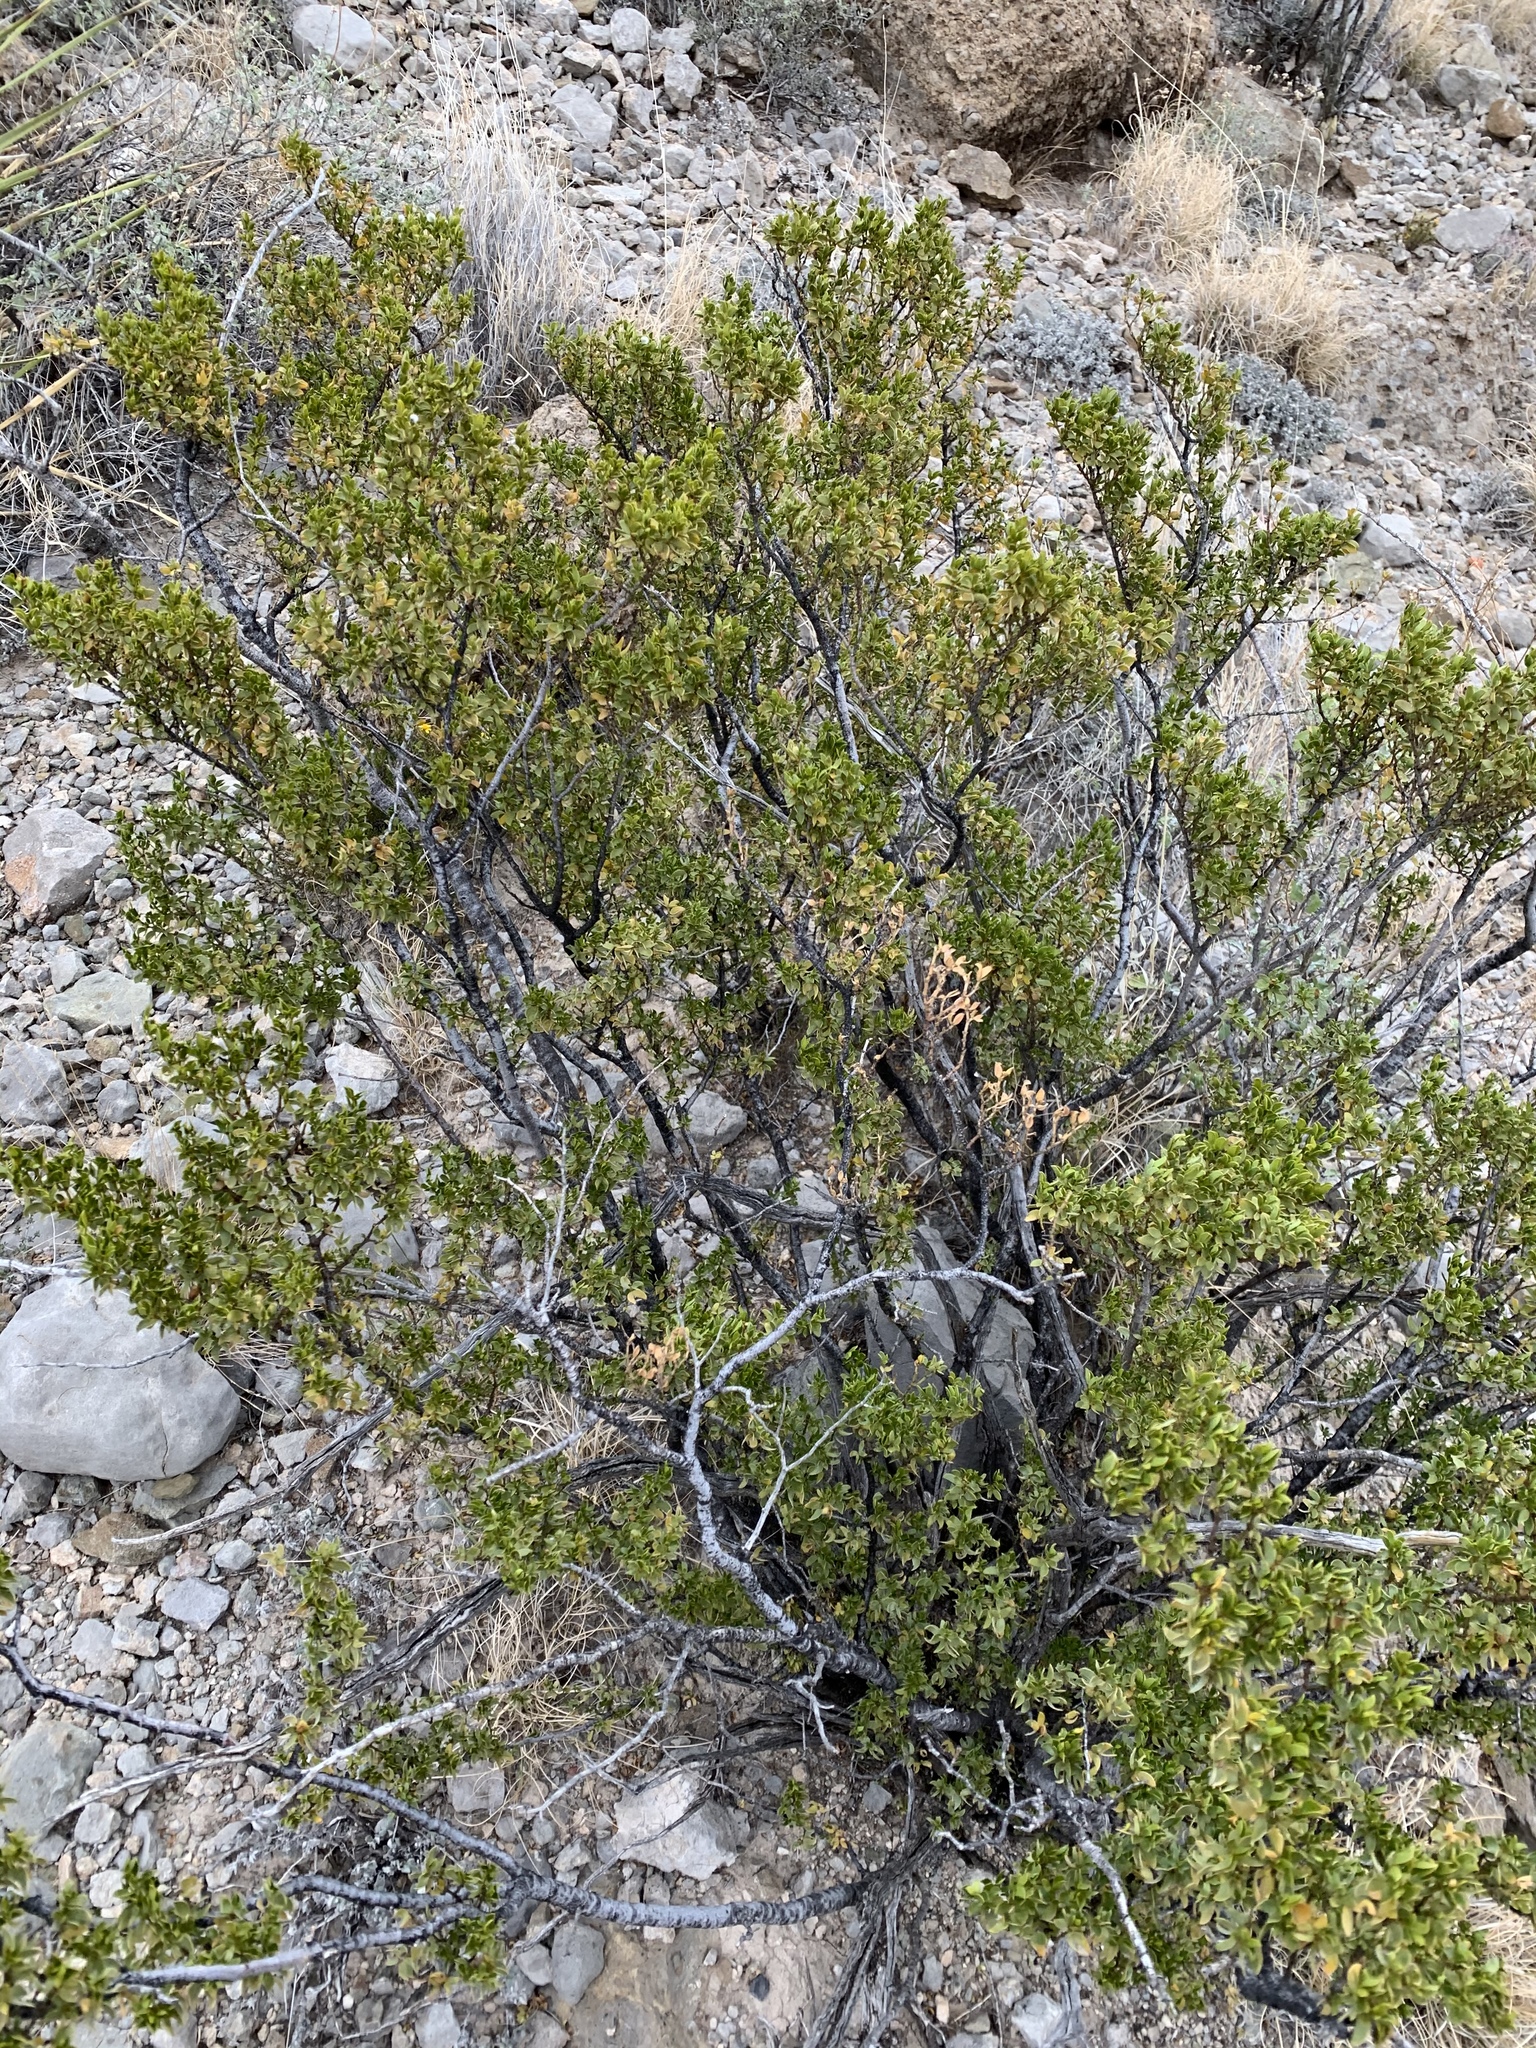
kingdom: Plantae
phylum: Tracheophyta
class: Magnoliopsida
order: Zygophyllales
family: Zygophyllaceae
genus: Larrea
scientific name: Larrea tridentata
